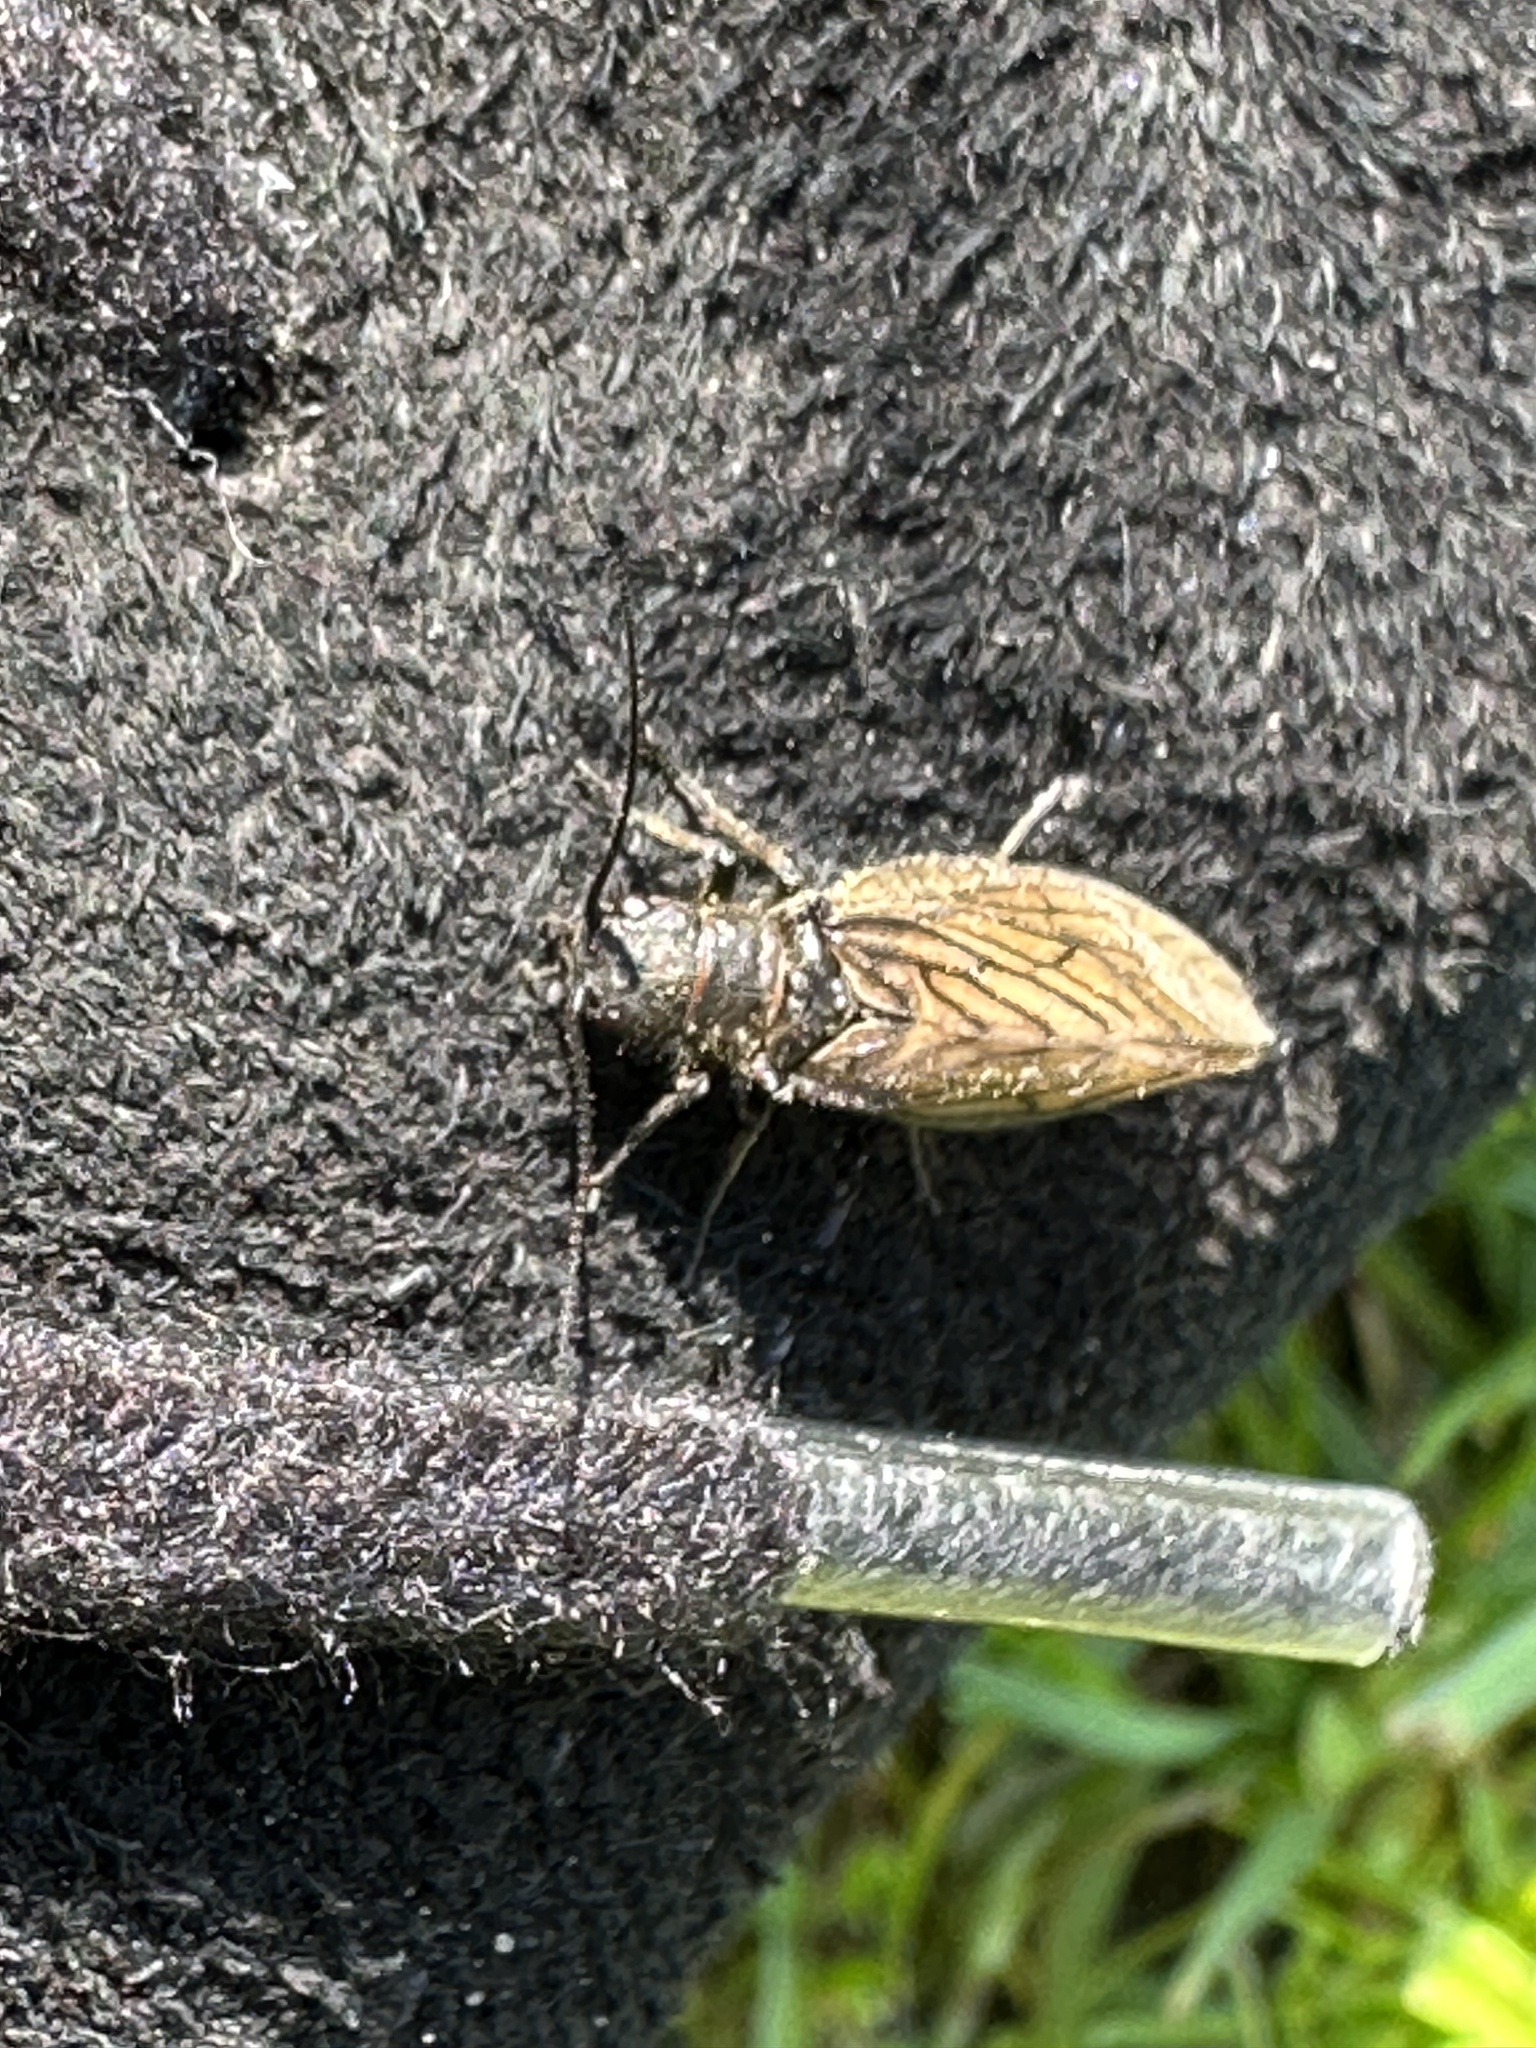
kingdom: Animalia
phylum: Arthropoda
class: Insecta
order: Megaloptera
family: Sialidae
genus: Sialis
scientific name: Sialis
